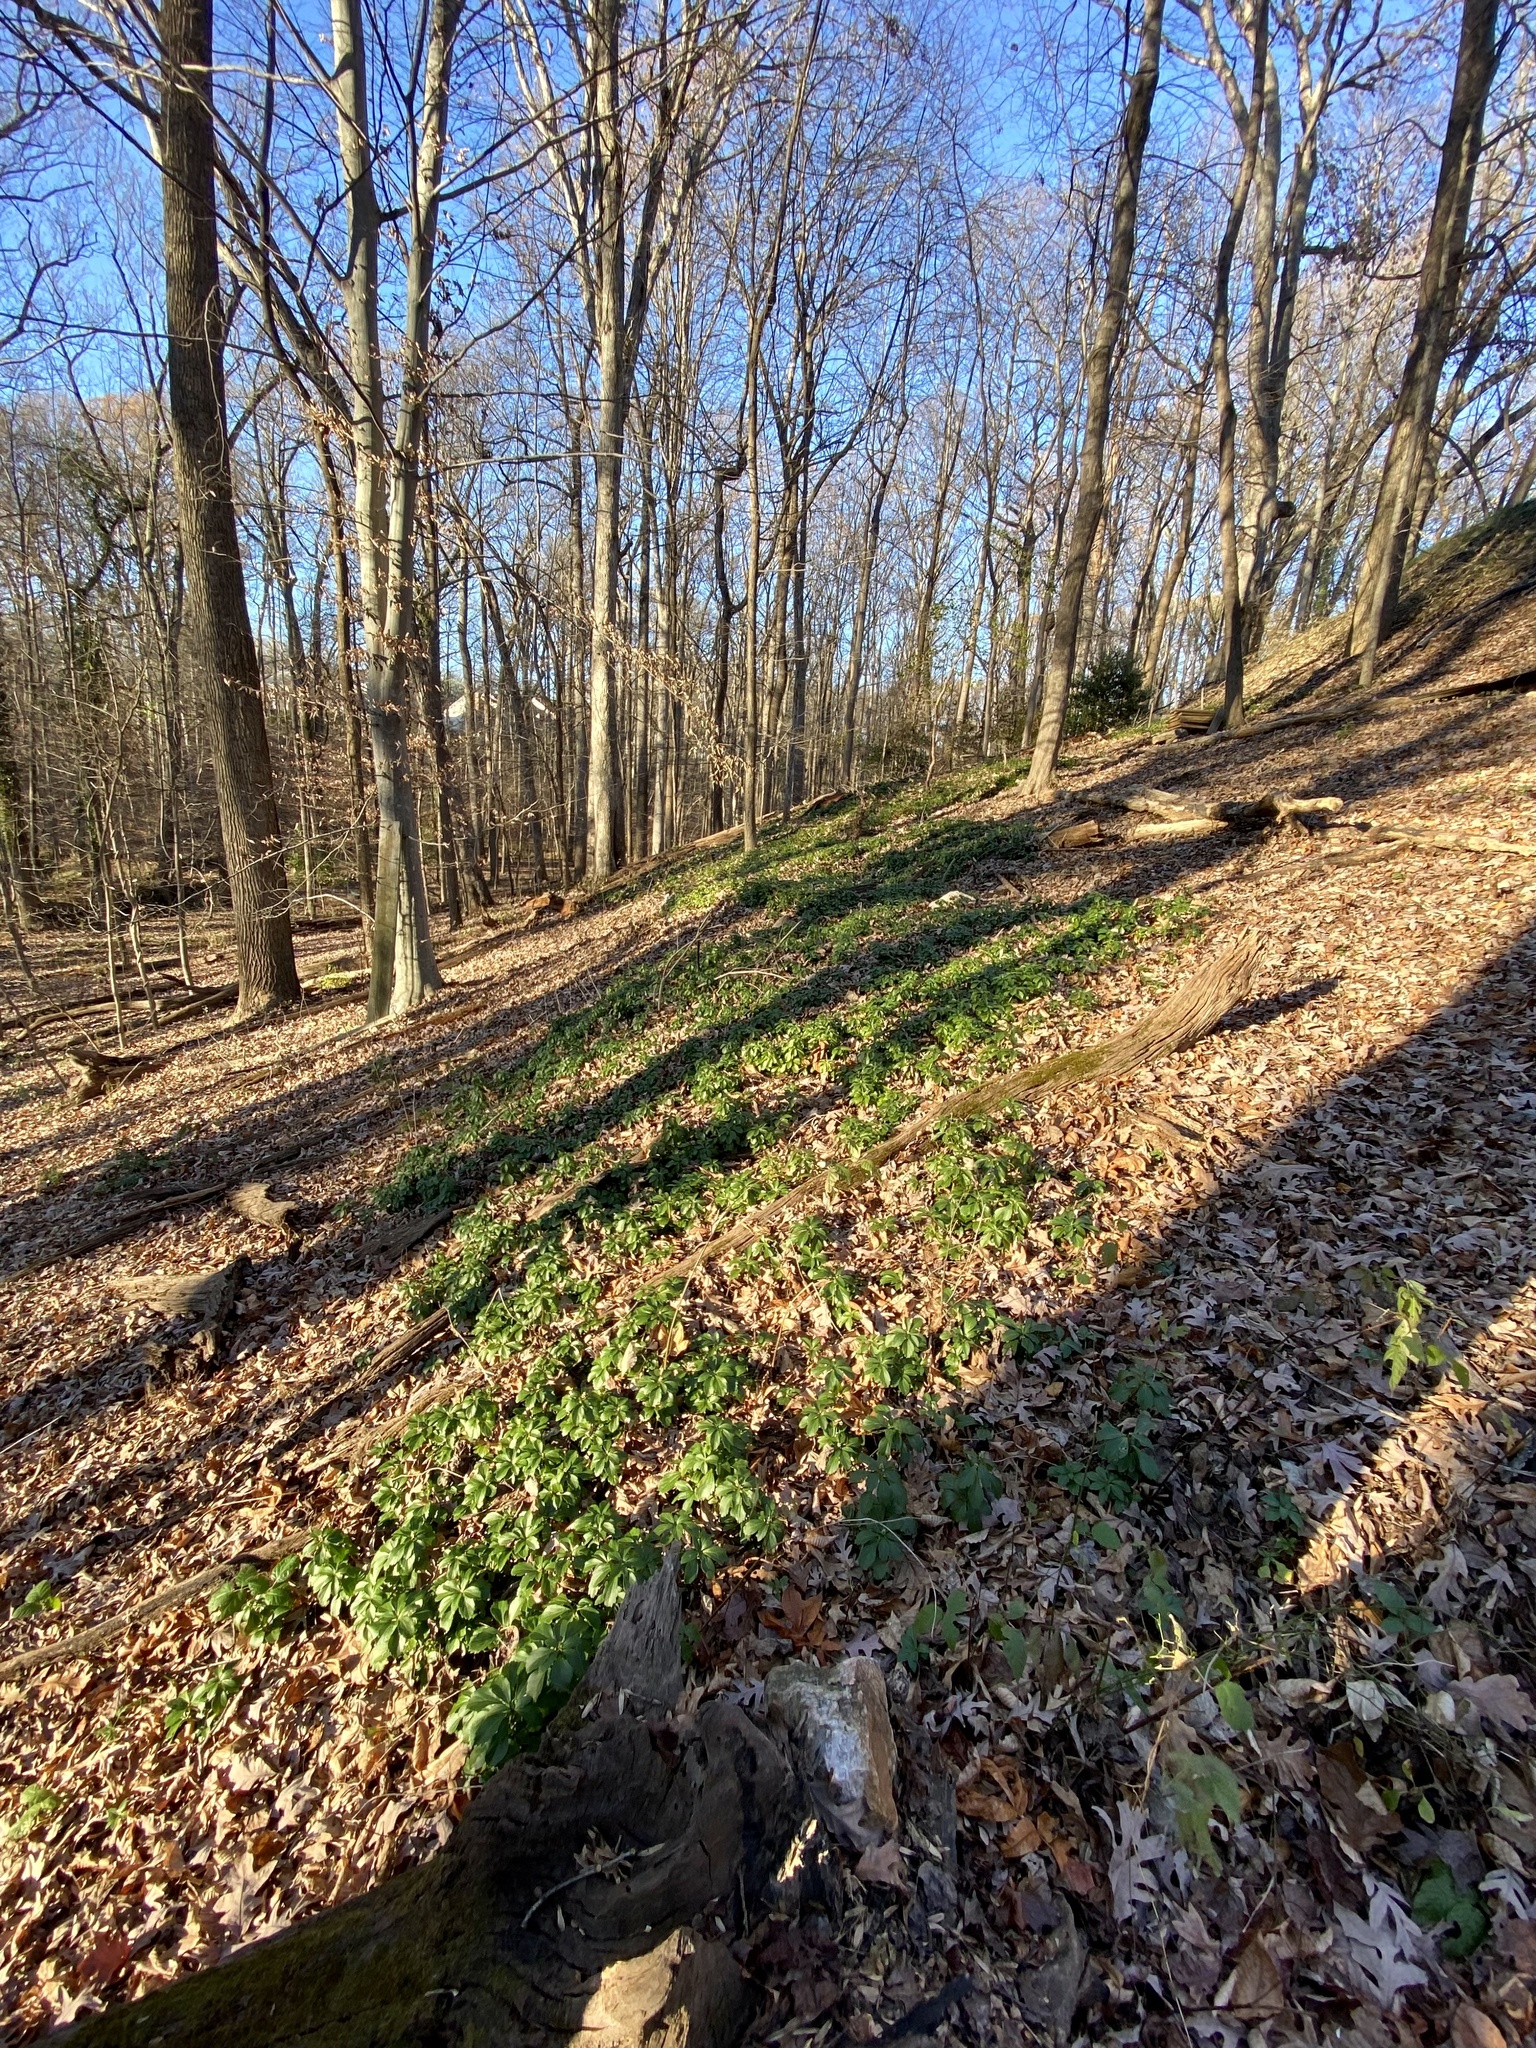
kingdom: Plantae
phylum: Tracheophyta
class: Magnoliopsida
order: Buxales
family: Buxaceae
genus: Pachysandra
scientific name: Pachysandra terminalis
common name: Japanese pachysandra
